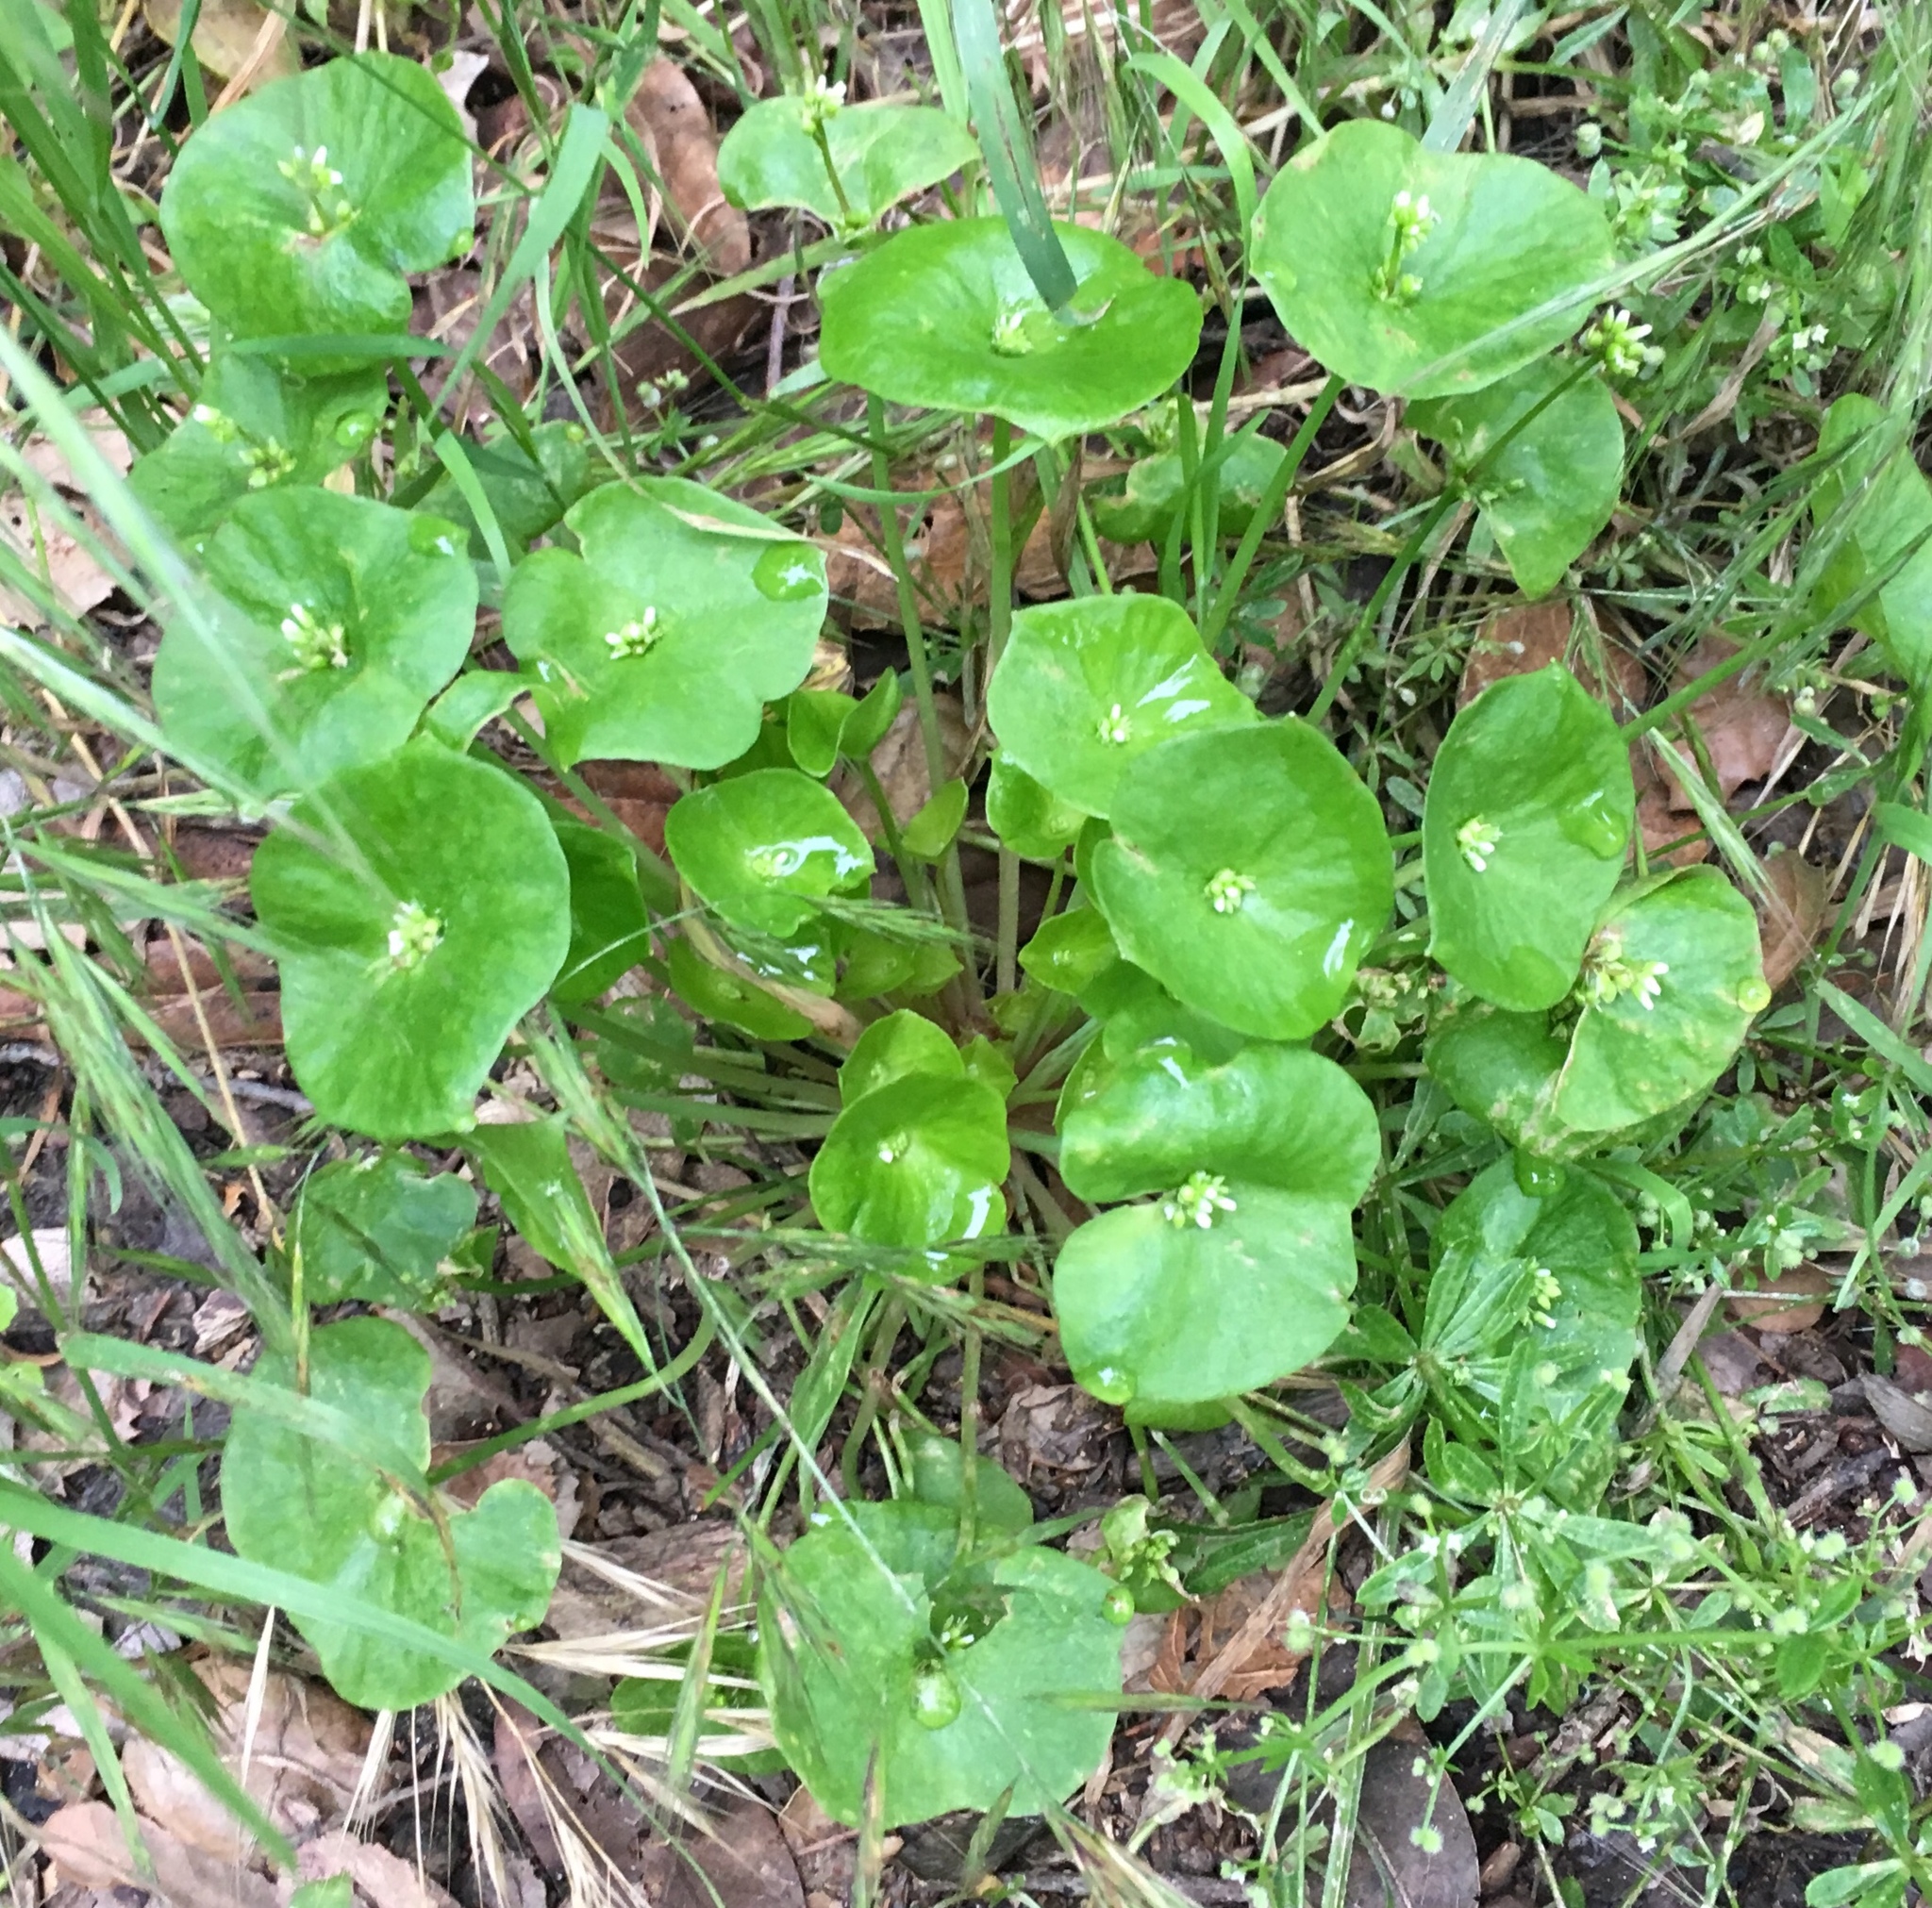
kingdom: Plantae
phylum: Tracheophyta
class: Magnoliopsida
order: Caryophyllales
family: Montiaceae
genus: Claytonia
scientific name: Claytonia perfoliata
